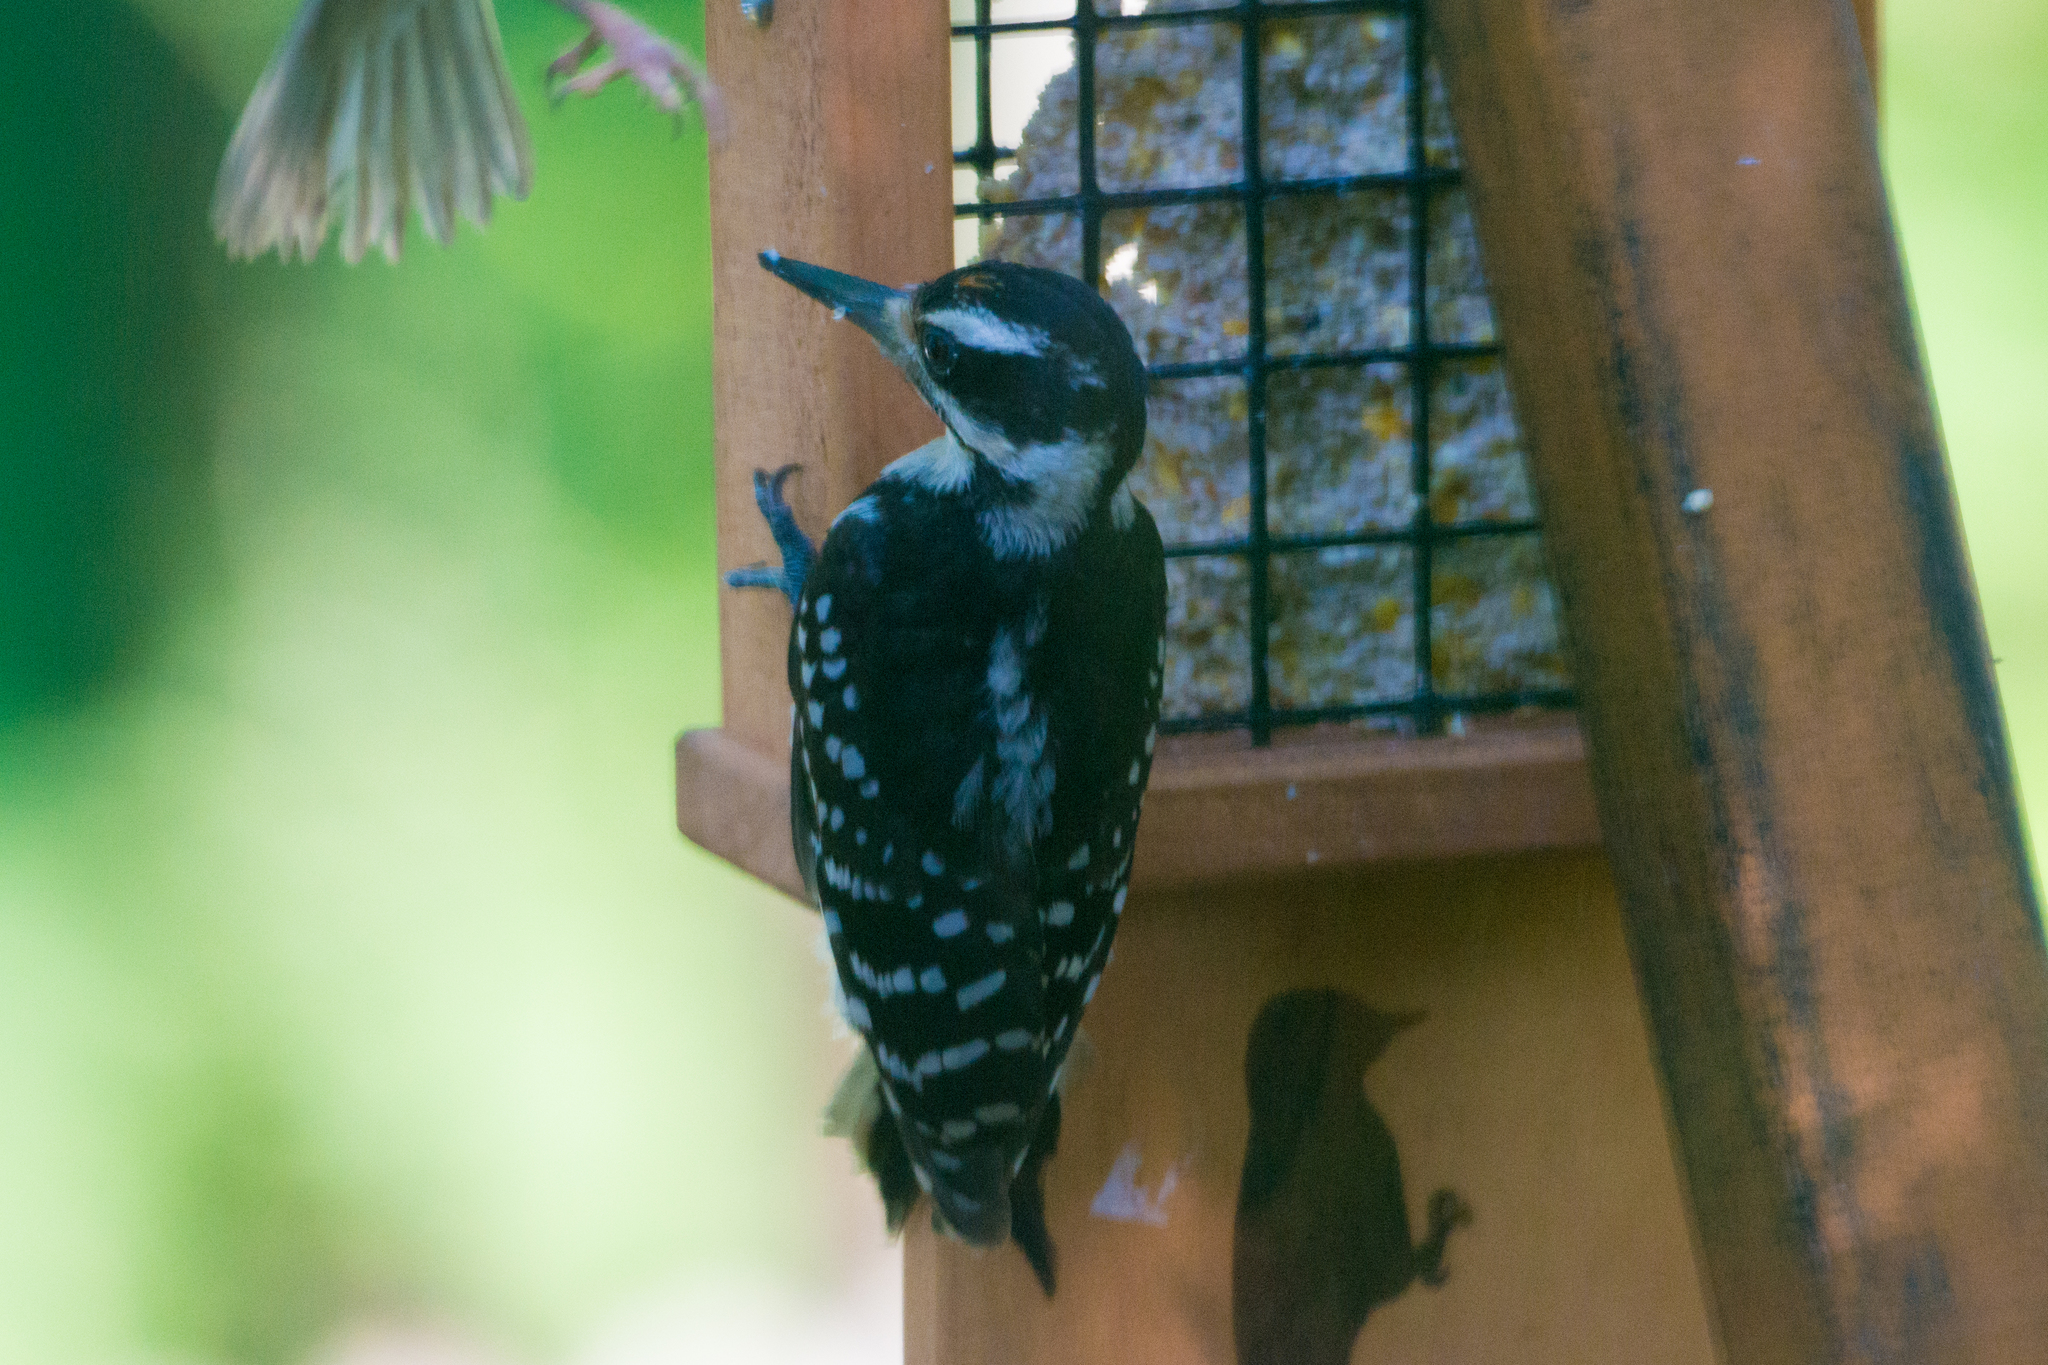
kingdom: Animalia
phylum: Chordata
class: Aves
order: Piciformes
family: Picidae
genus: Leuconotopicus
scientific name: Leuconotopicus villosus
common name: Hairy woodpecker
